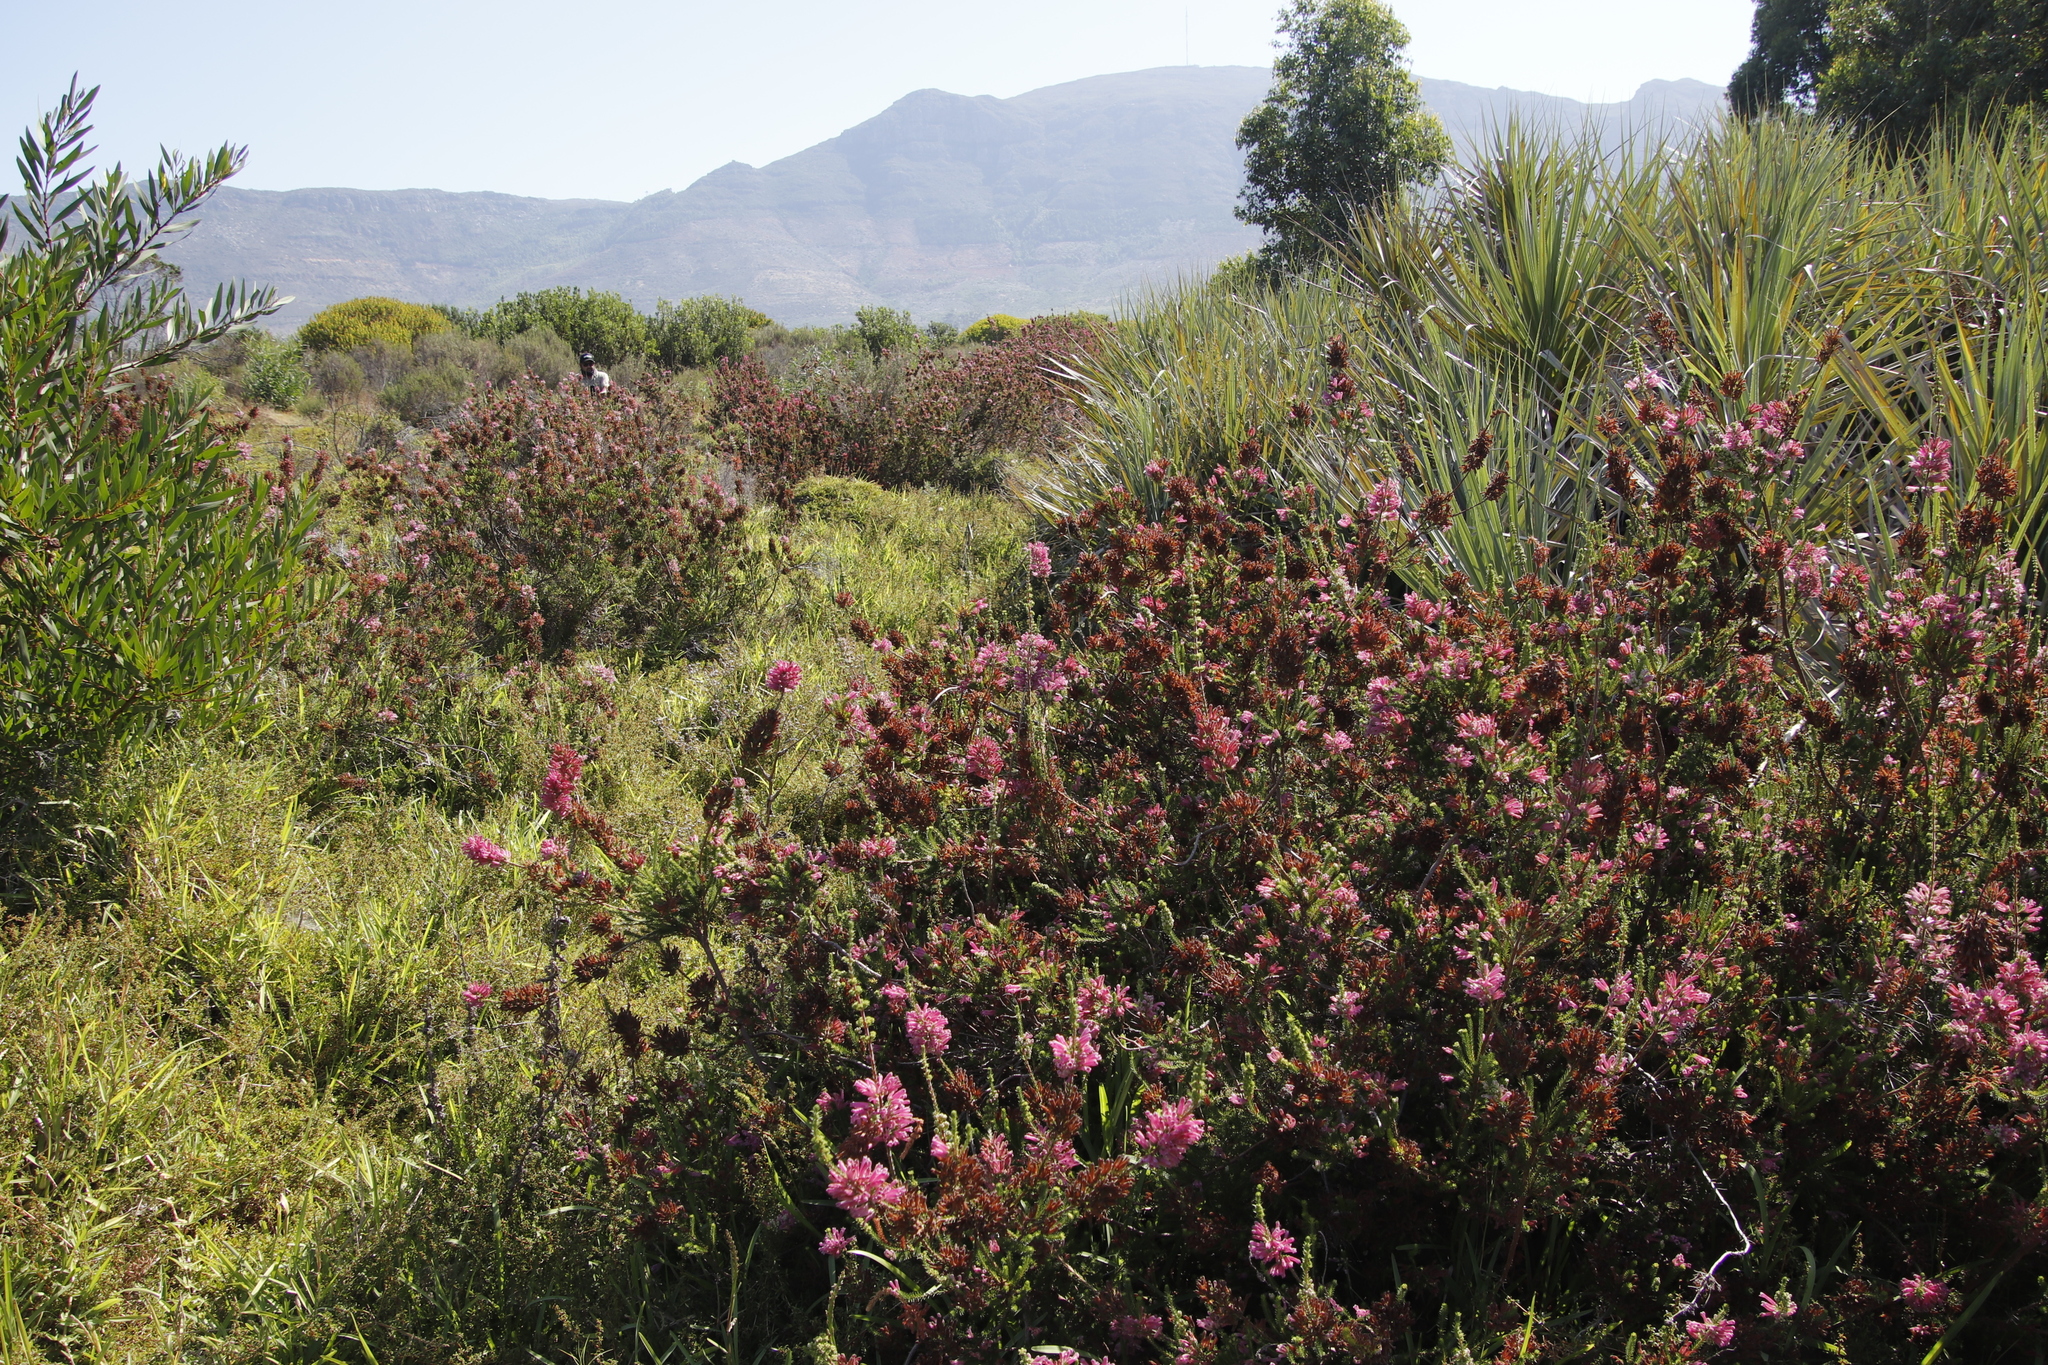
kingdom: Plantae
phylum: Tracheophyta
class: Magnoliopsida
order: Ericales
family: Ericaceae
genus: Erica
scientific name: Erica verticillata
